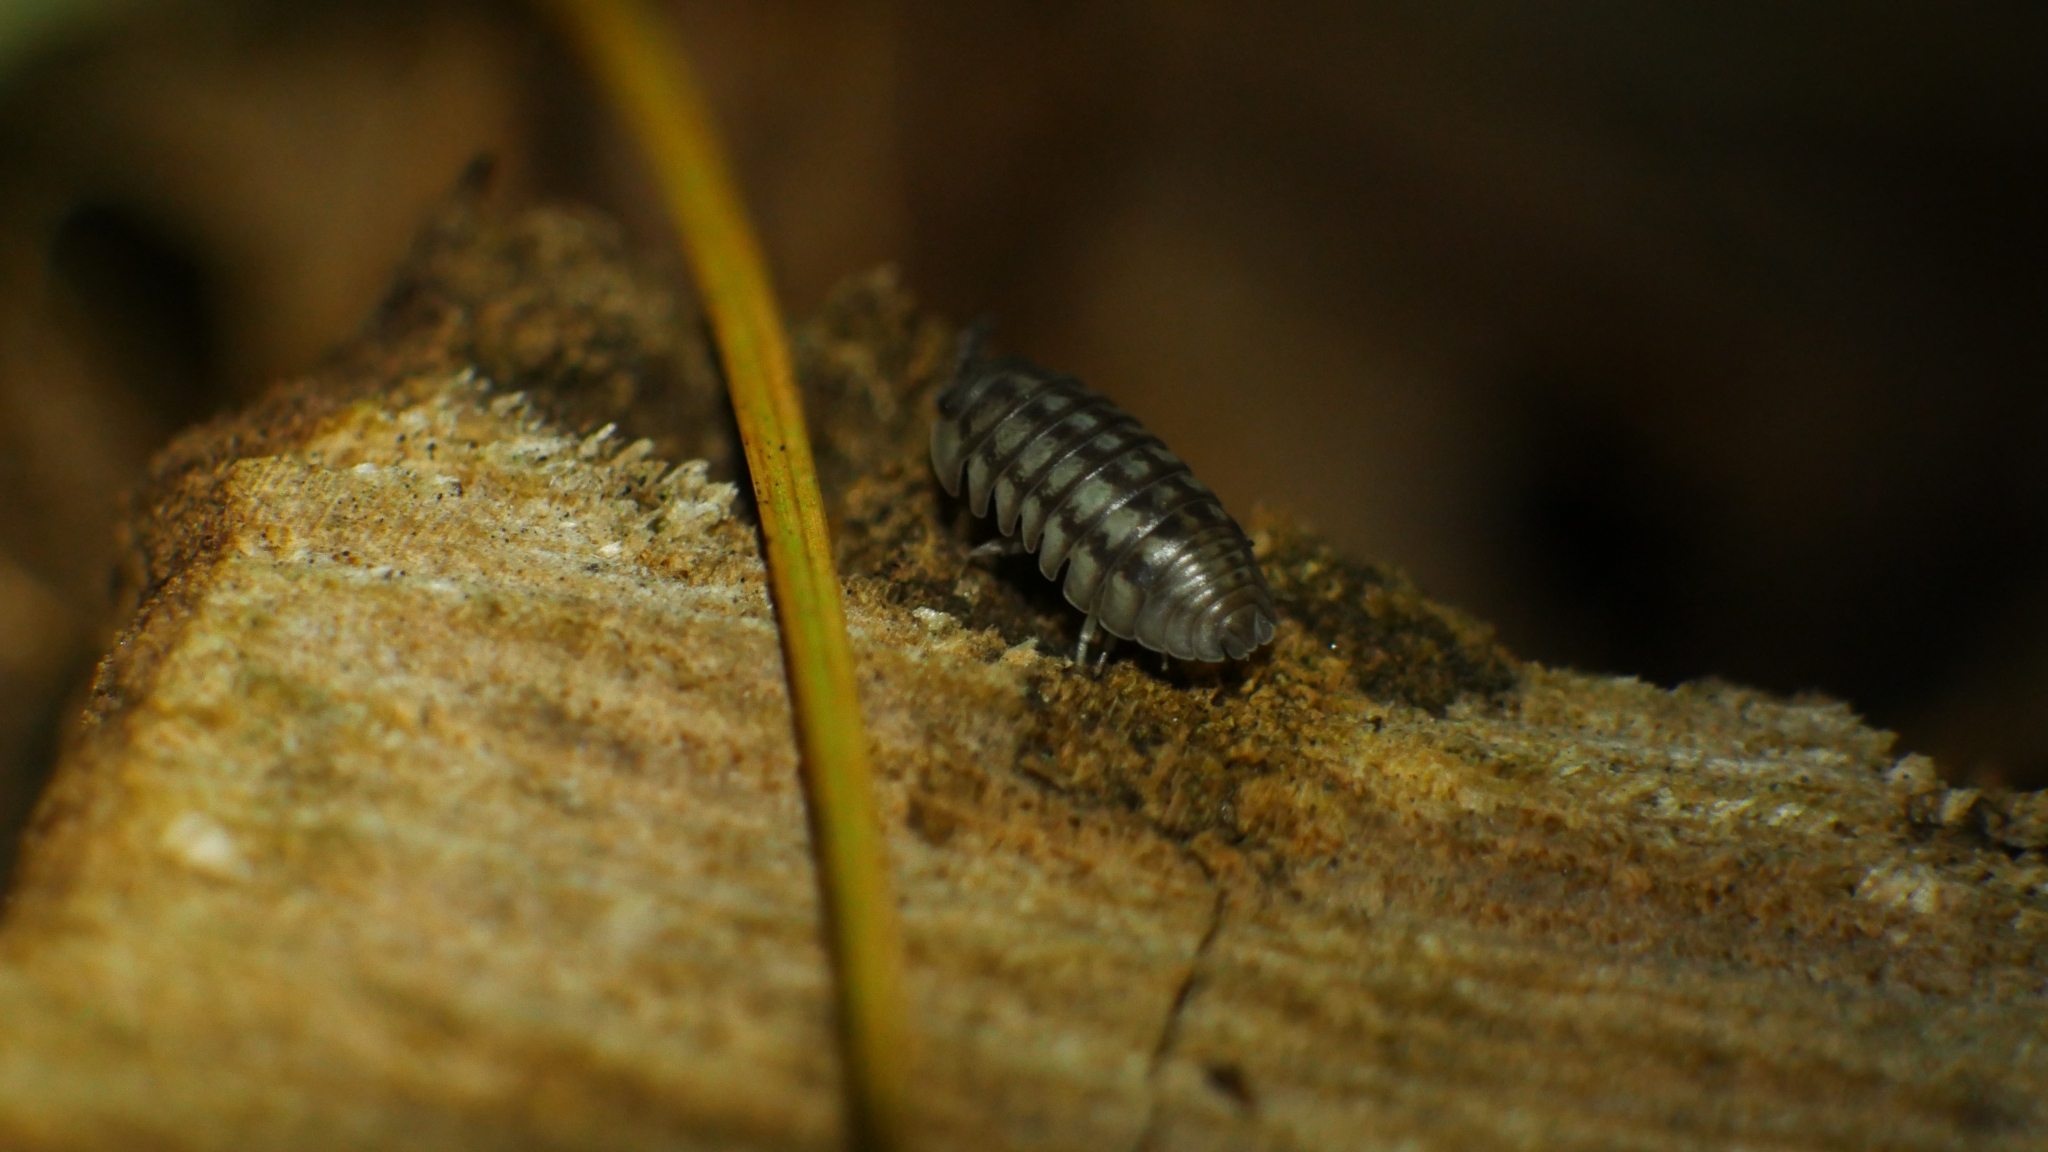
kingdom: Animalia
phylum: Arthropoda
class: Malacostraca
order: Isopoda
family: Armadillidiidae
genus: Armadillidium
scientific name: Armadillidium nasatum
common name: Isopod
